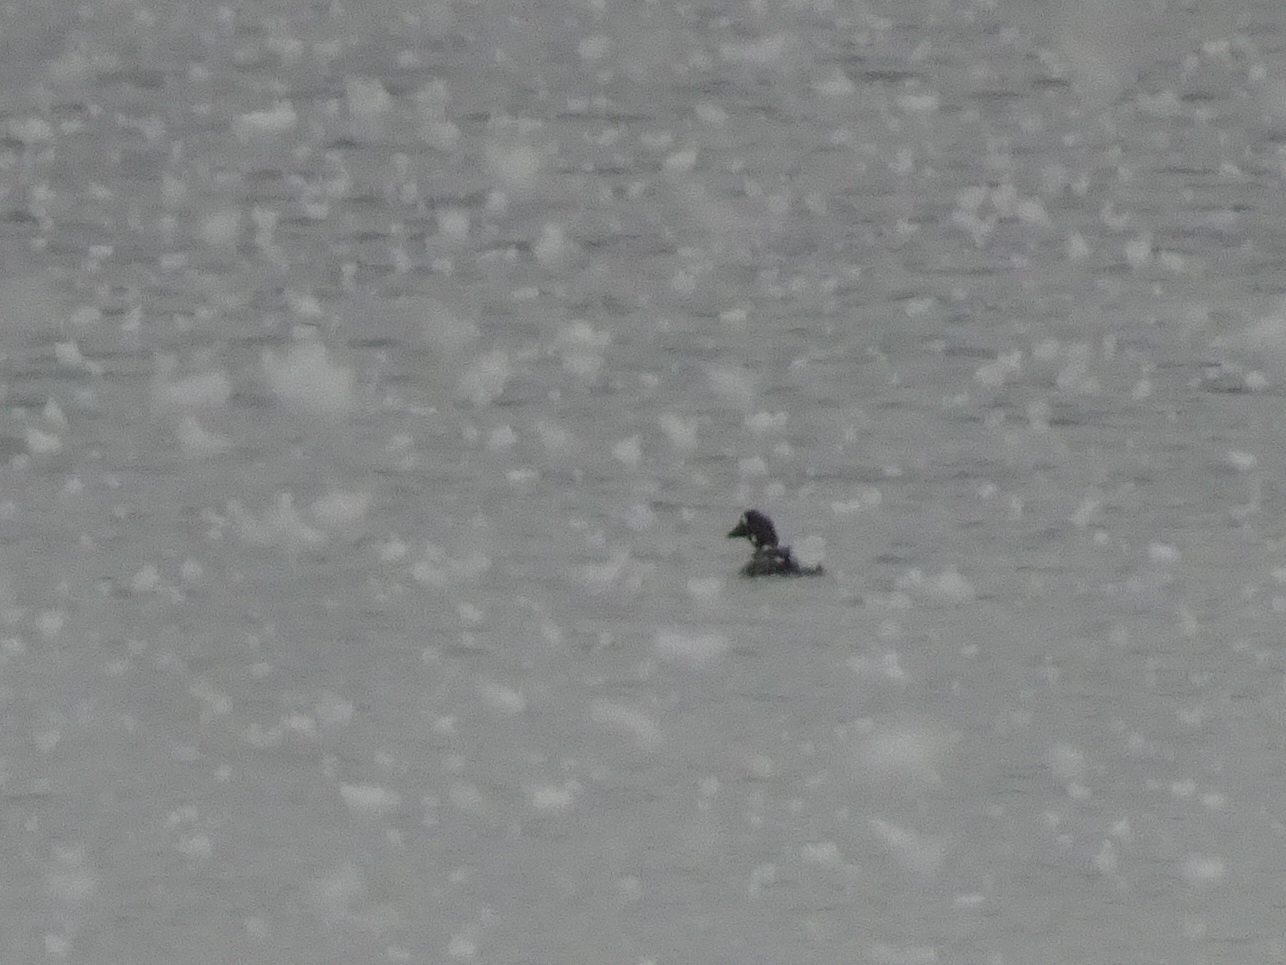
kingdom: Animalia
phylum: Chordata
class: Aves
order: Anseriformes
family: Anatidae
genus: Bucephala
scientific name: Bucephala clangula
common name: Common goldeneye
